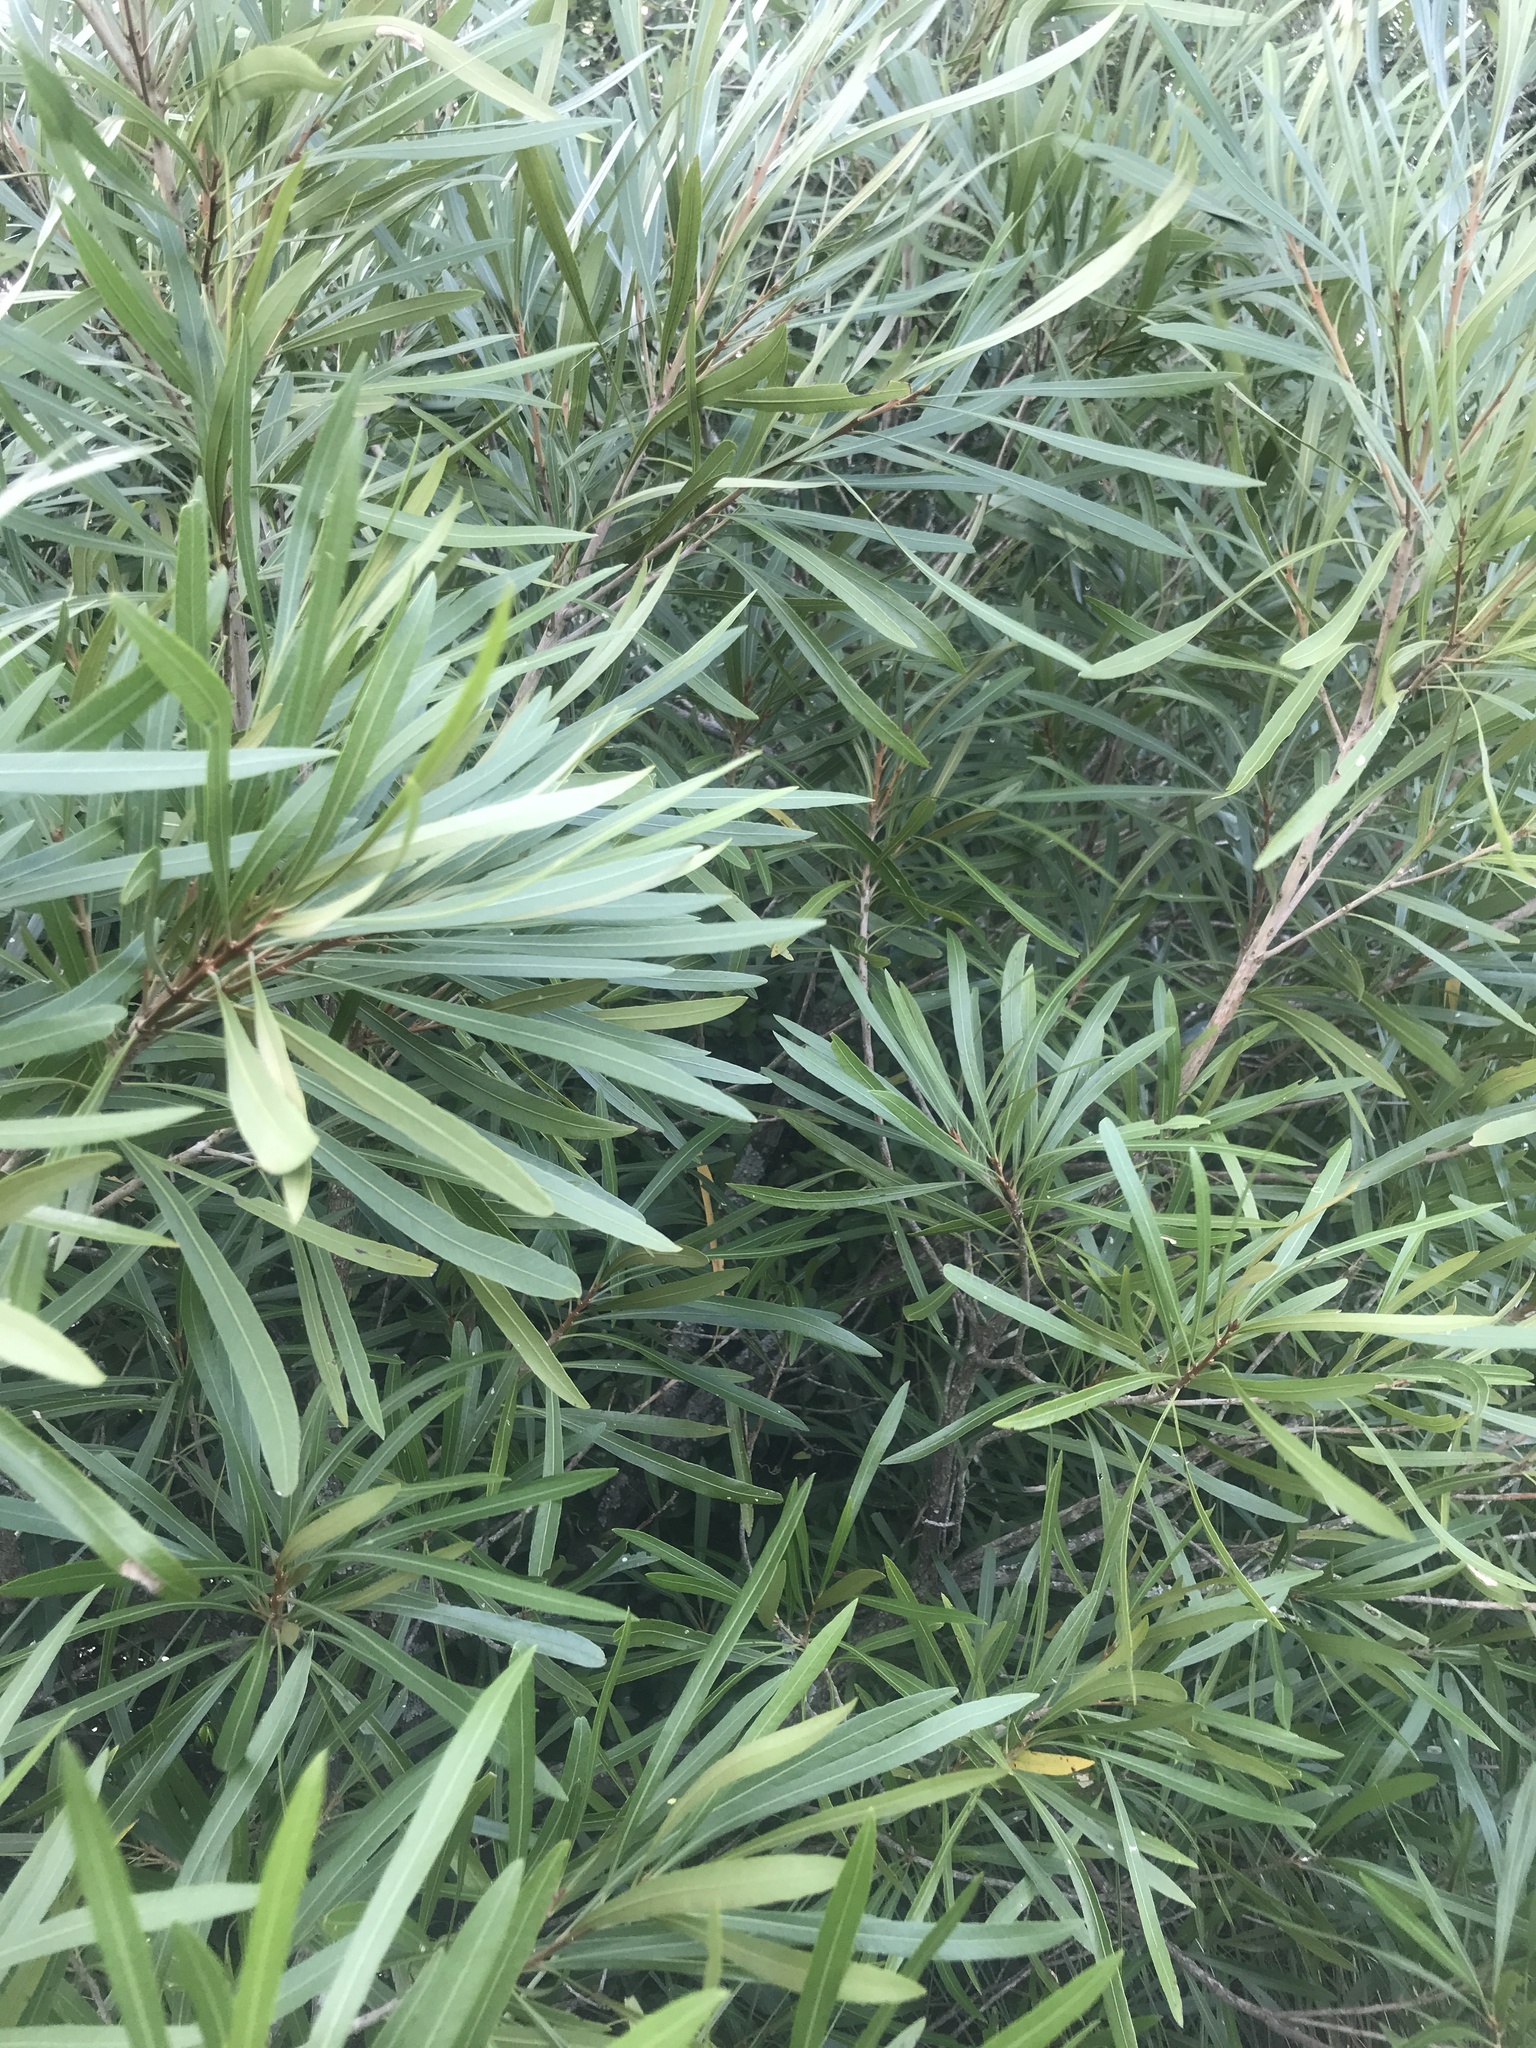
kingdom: Plantae
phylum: Tracheophyta
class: Magnoliopsida
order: Ericales
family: Sapotaceae
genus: Labatia
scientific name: Labatia salicifolia
